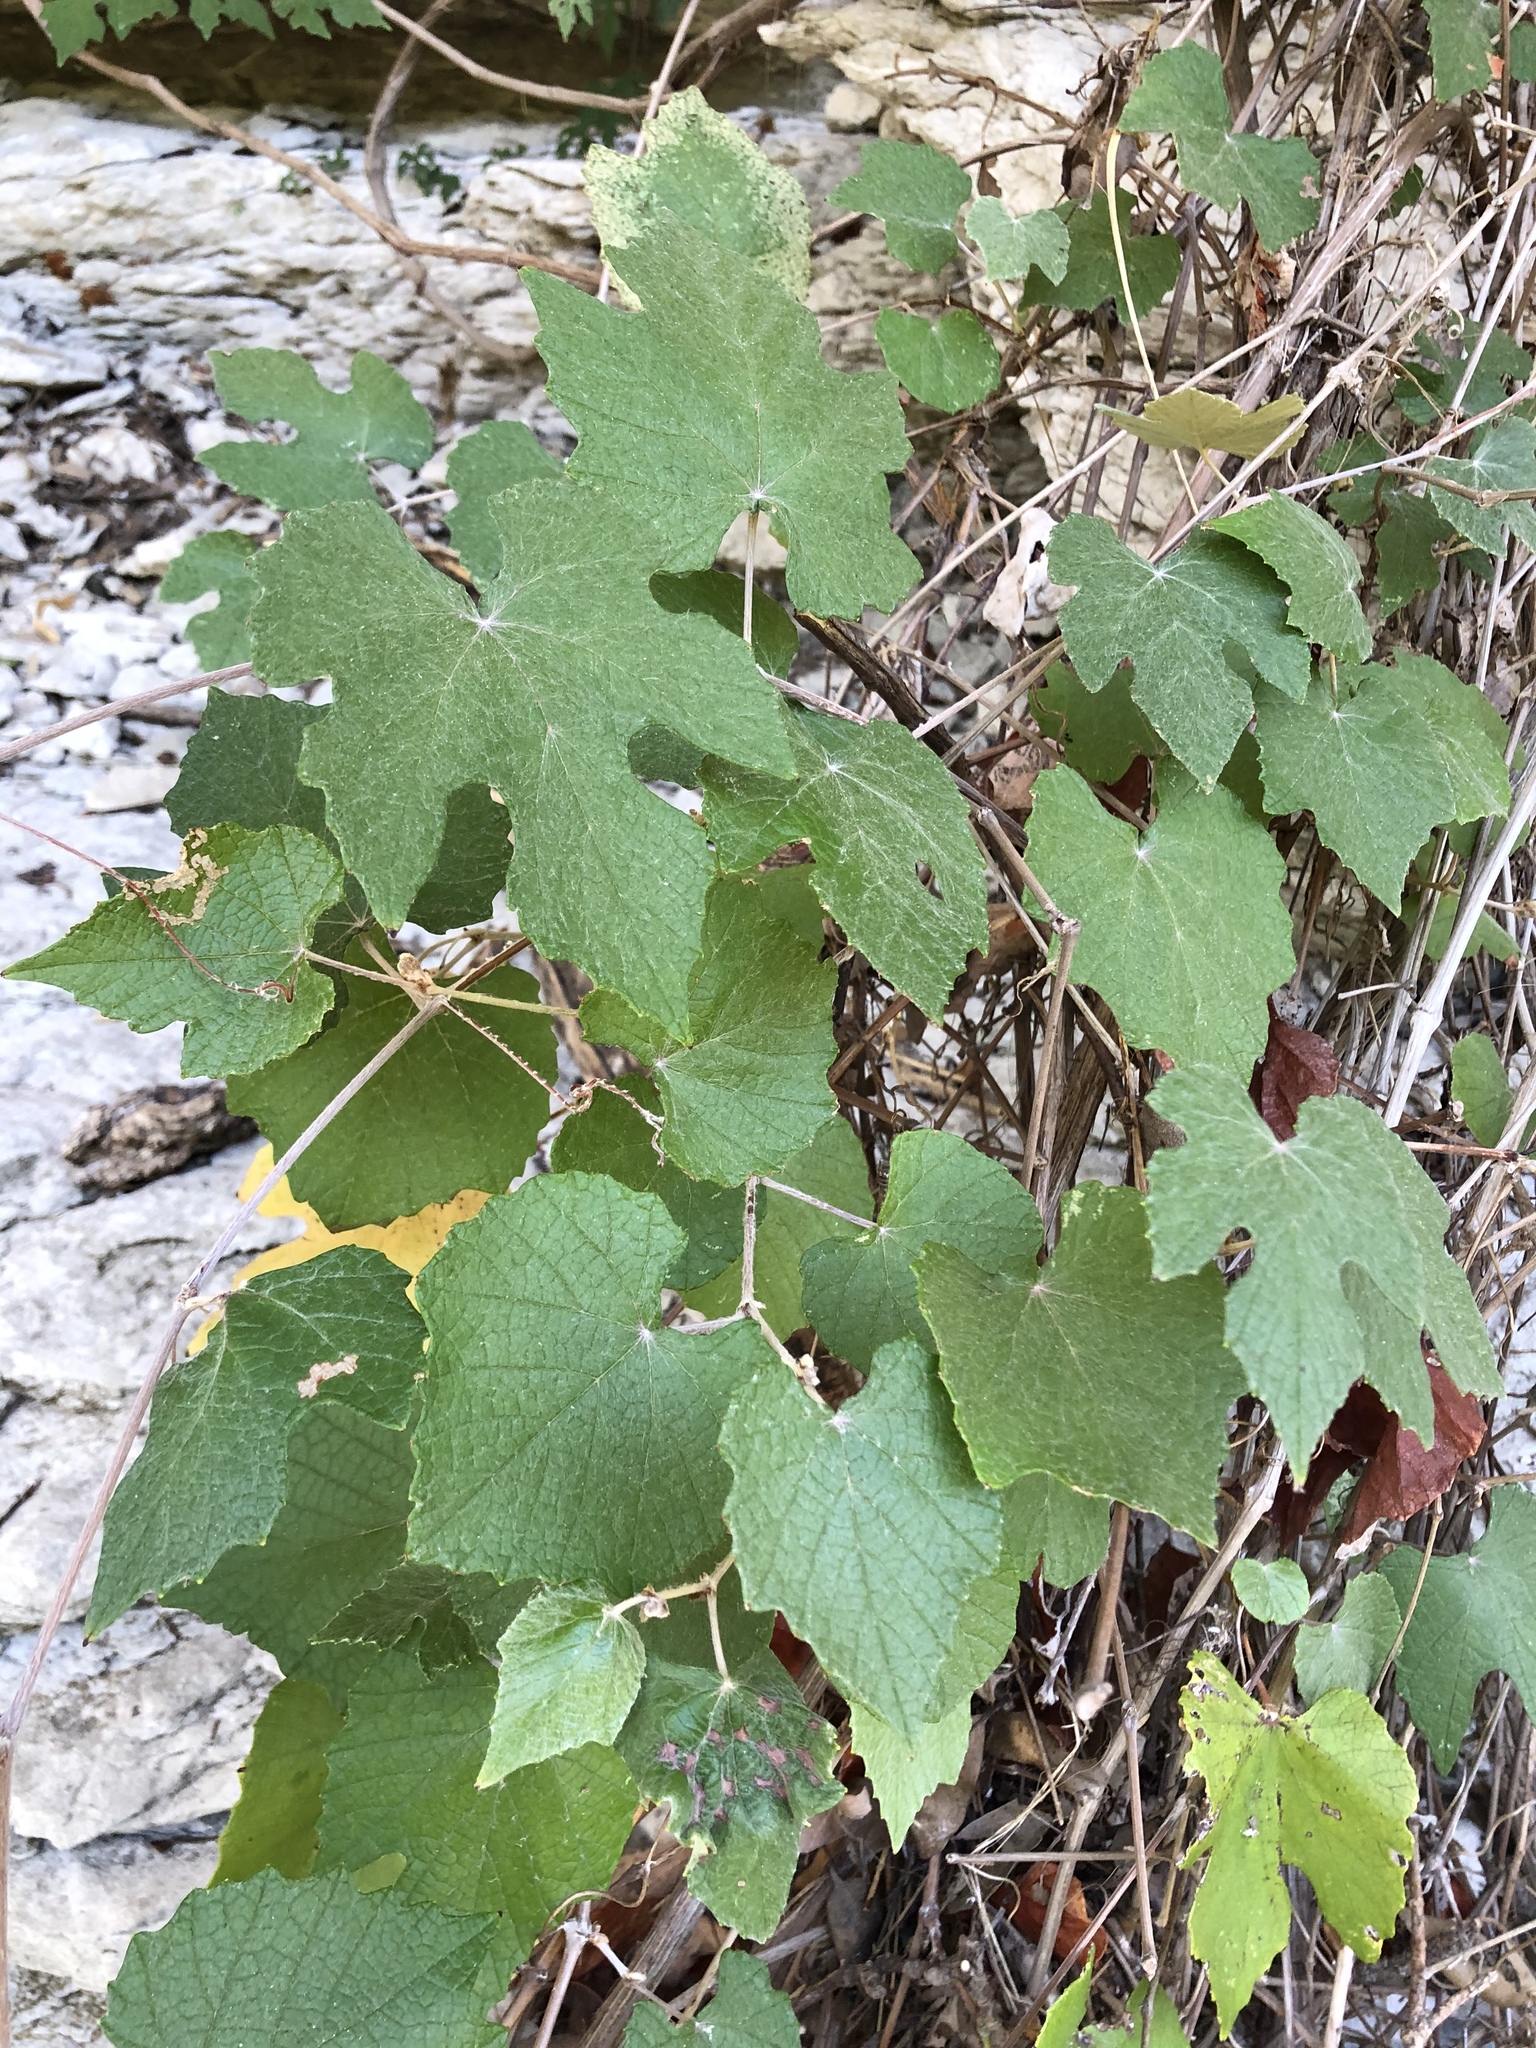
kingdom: Plantae
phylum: Tracheophyta
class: Magnoliopsida
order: Vitales
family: Vitaceae
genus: Vitis
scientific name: Vitis mustangensis
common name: Mustang grape
